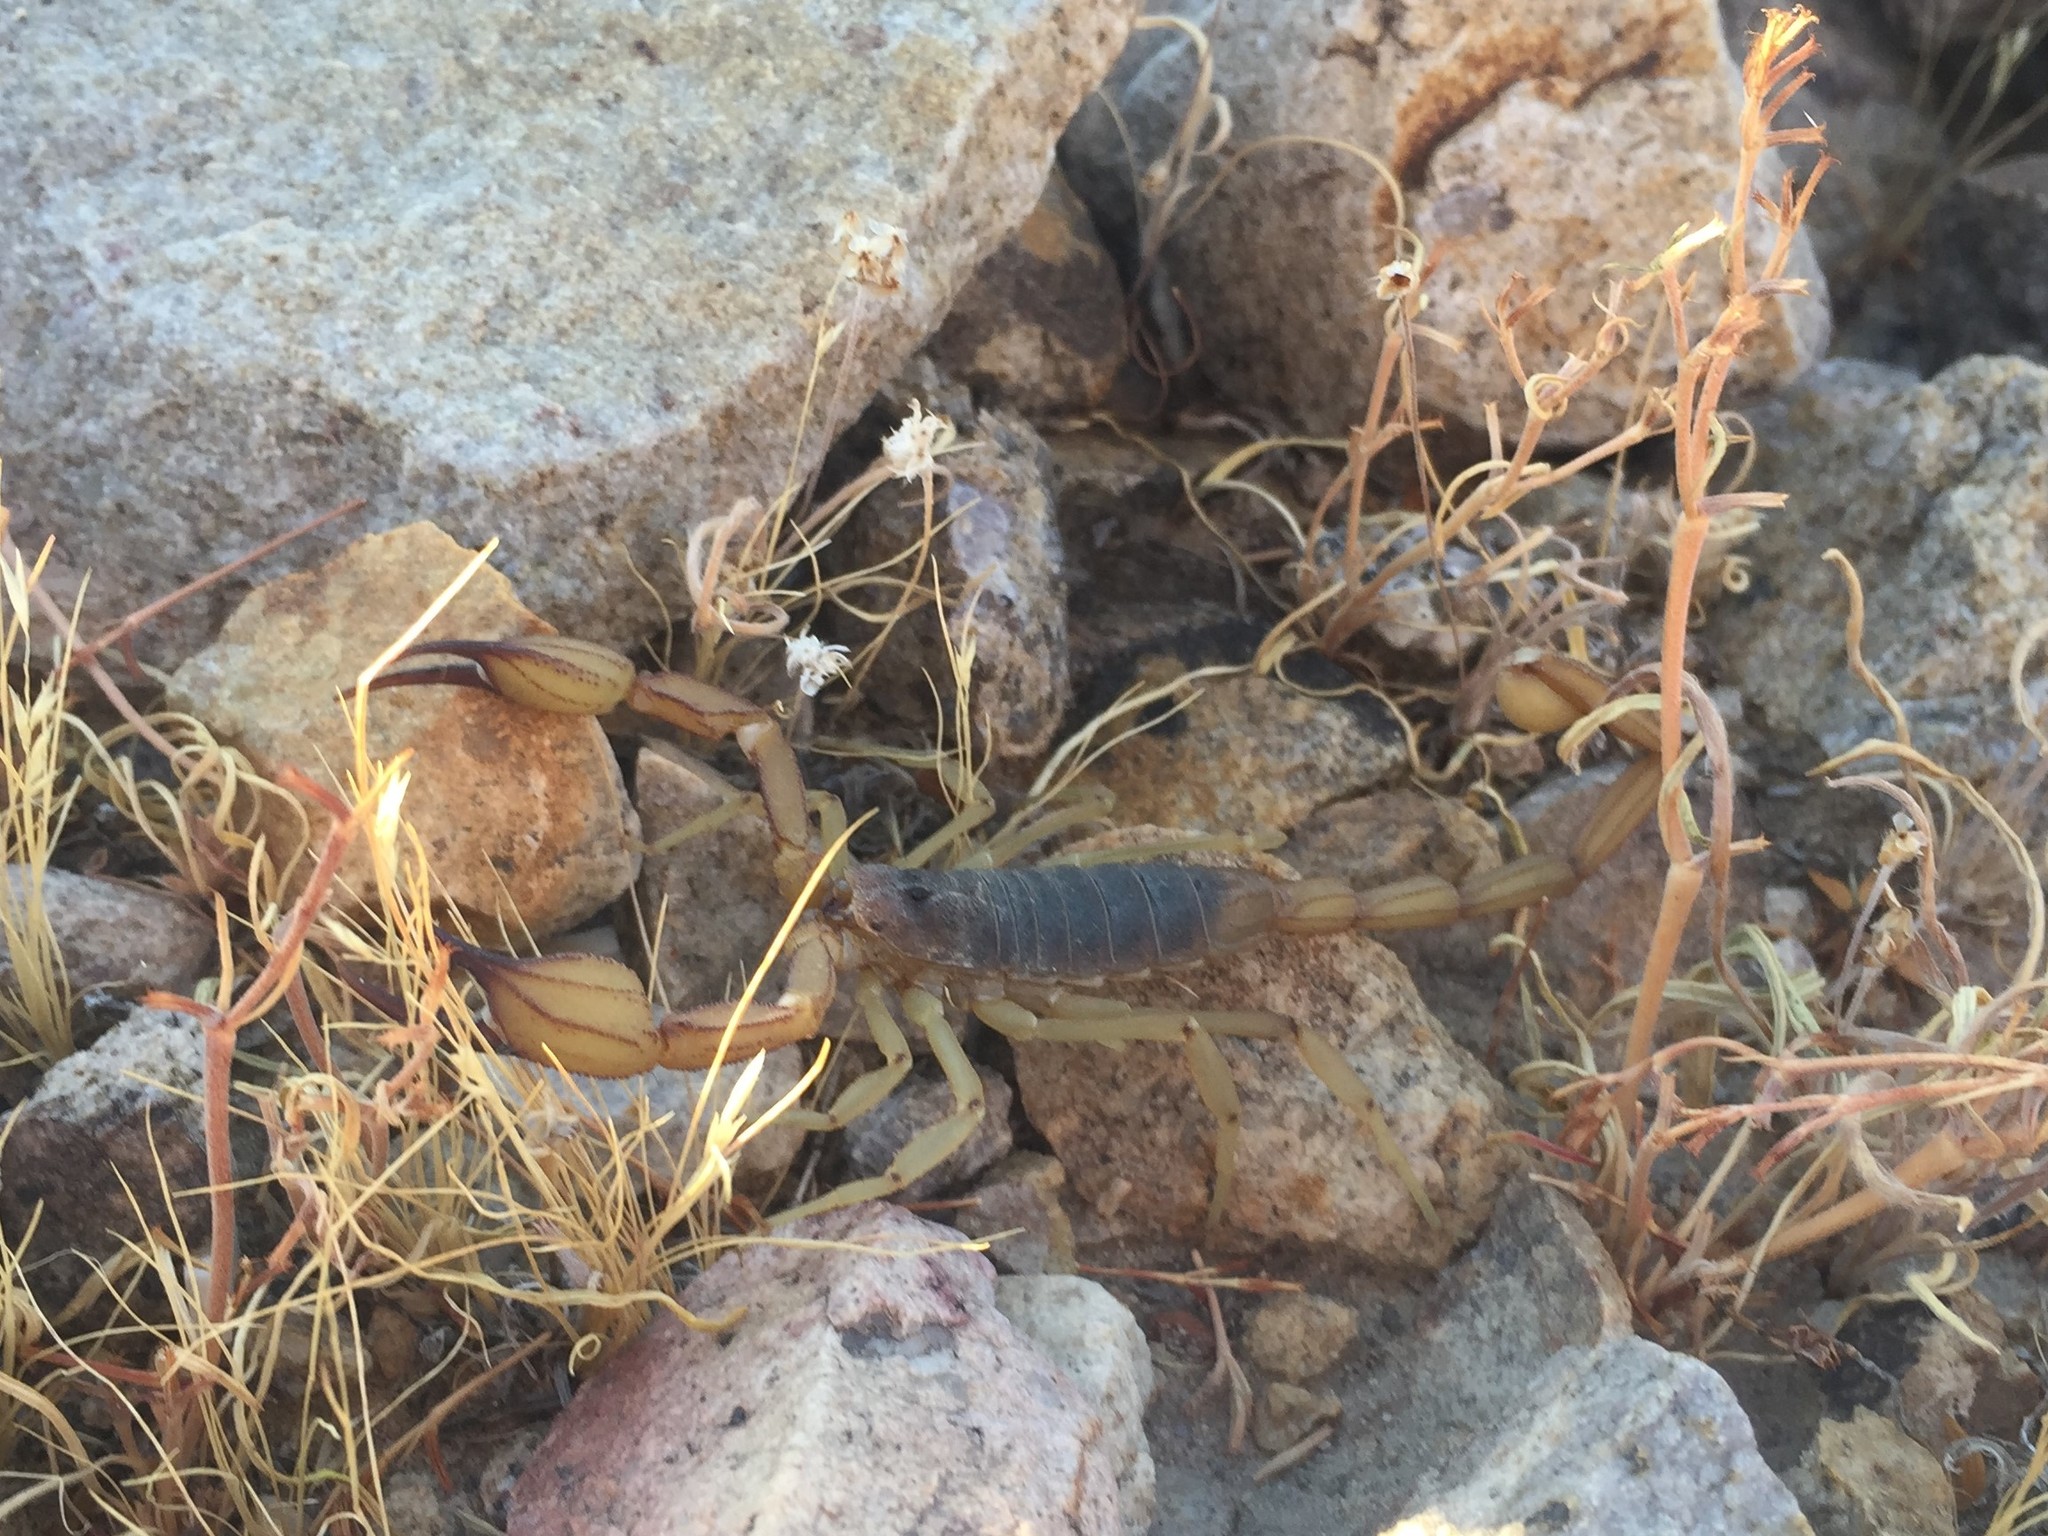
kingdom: Animalia
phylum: Arthropoda
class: Arachnida
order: Scorpiones
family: Vaejovidae
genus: Smeringurus
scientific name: Smeringurus vachoni
